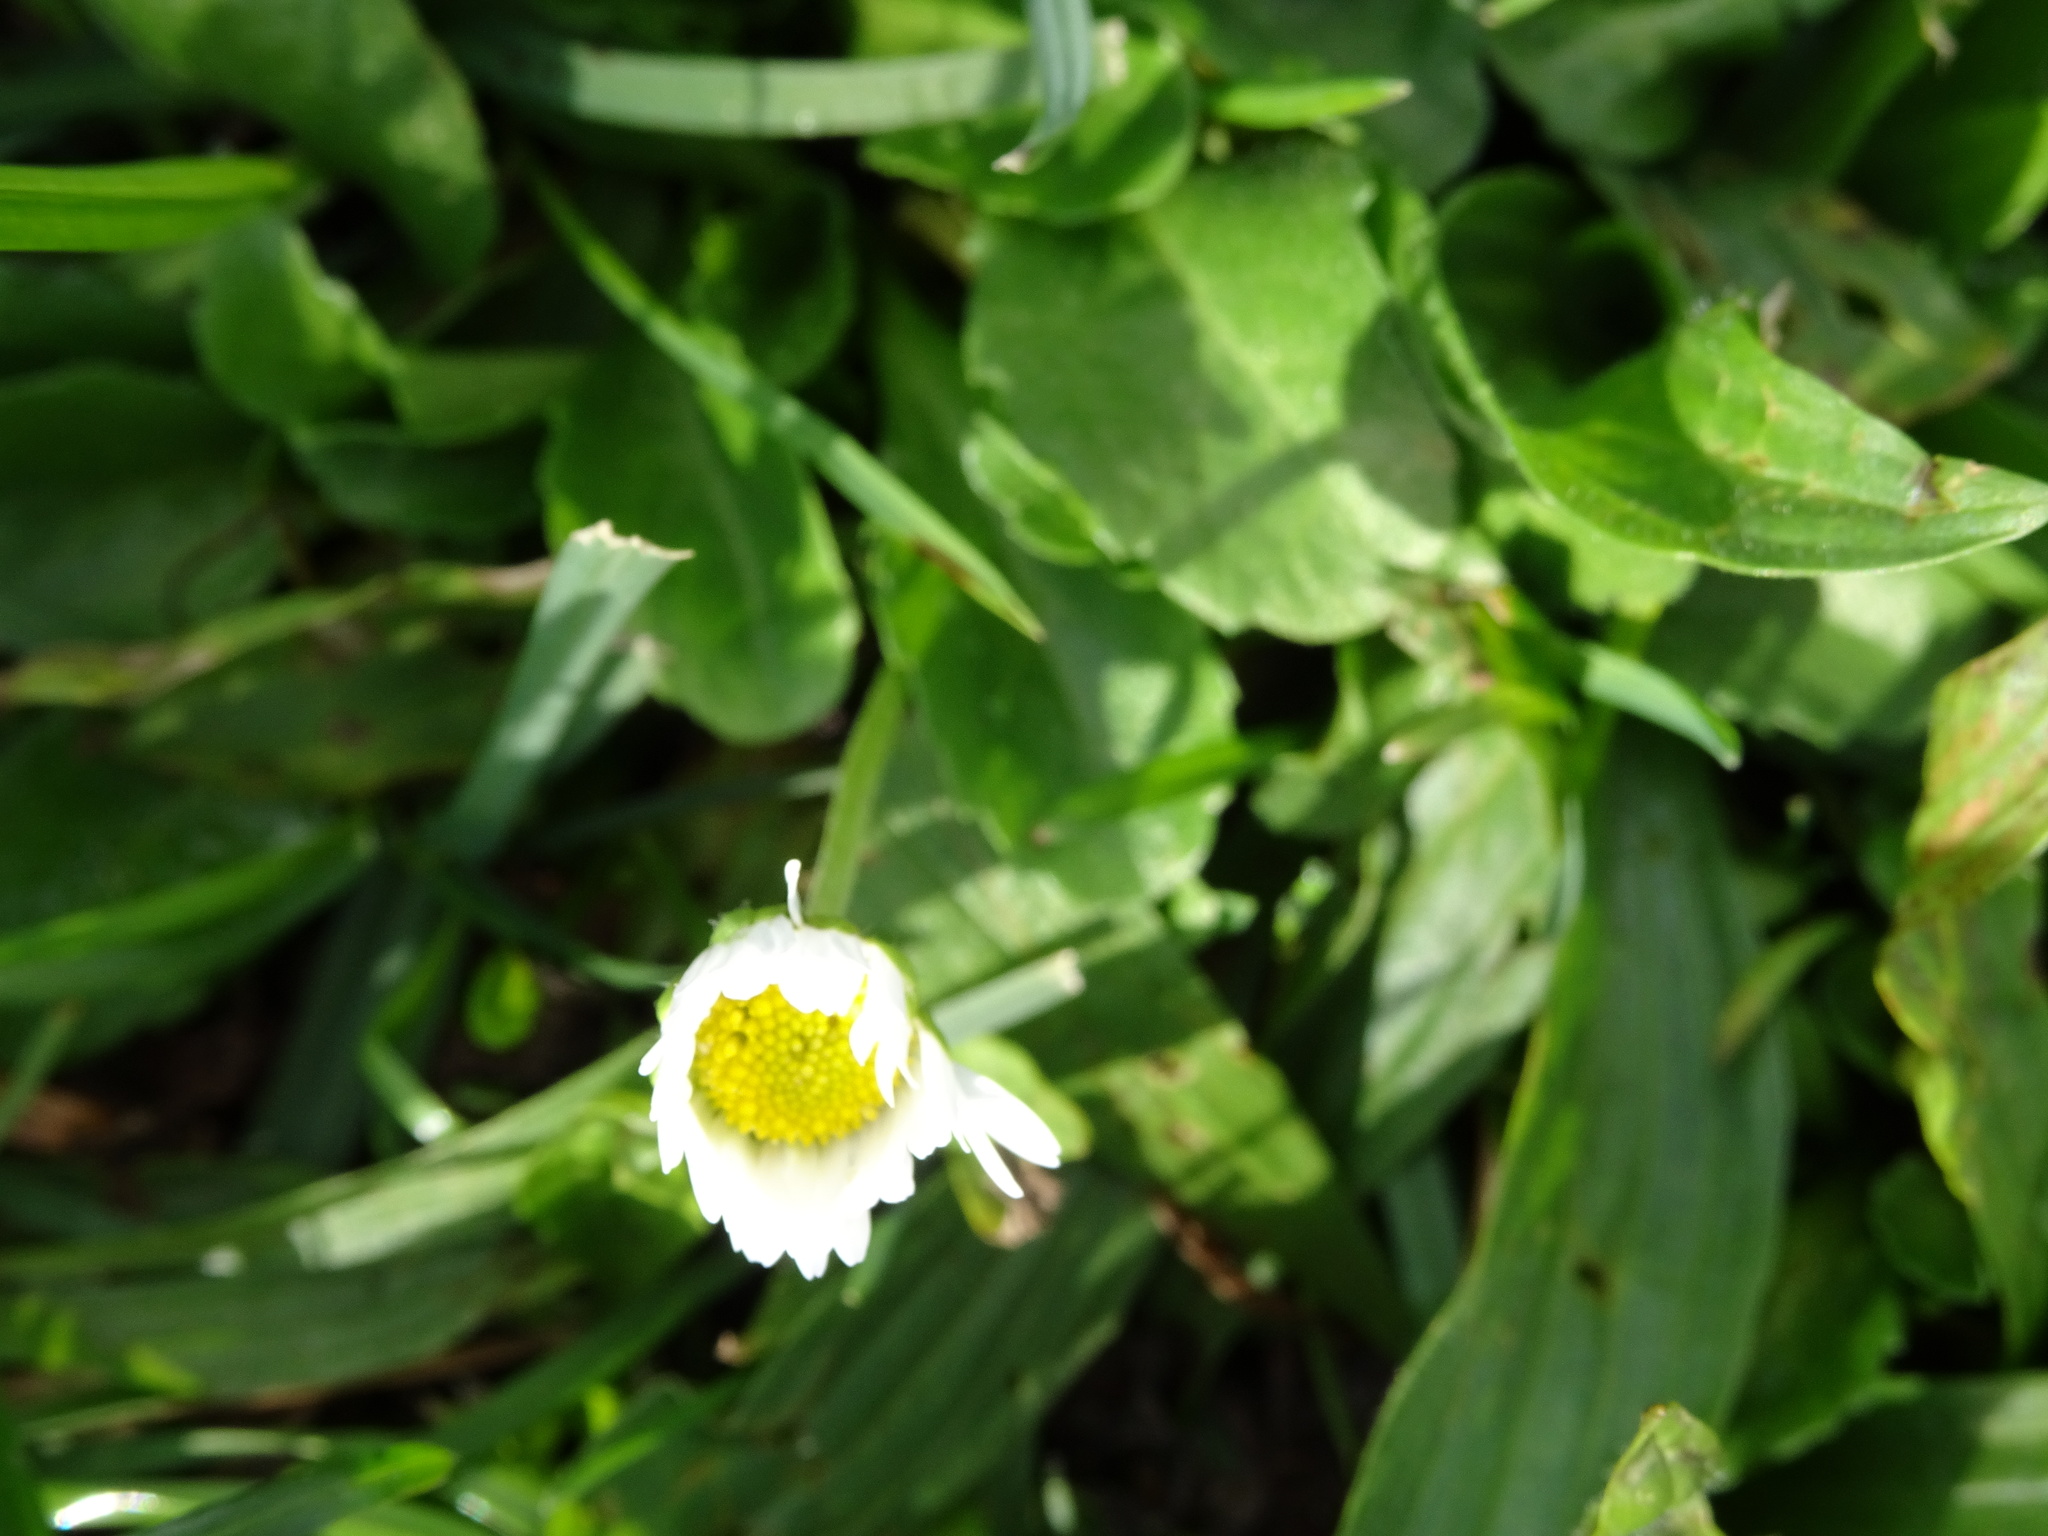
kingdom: Plantae
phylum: Tracheophyta
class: Magnoliopsida
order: Asterales
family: Asteraceae
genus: Bellis
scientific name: Bellis perennis
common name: Lawndaisy
